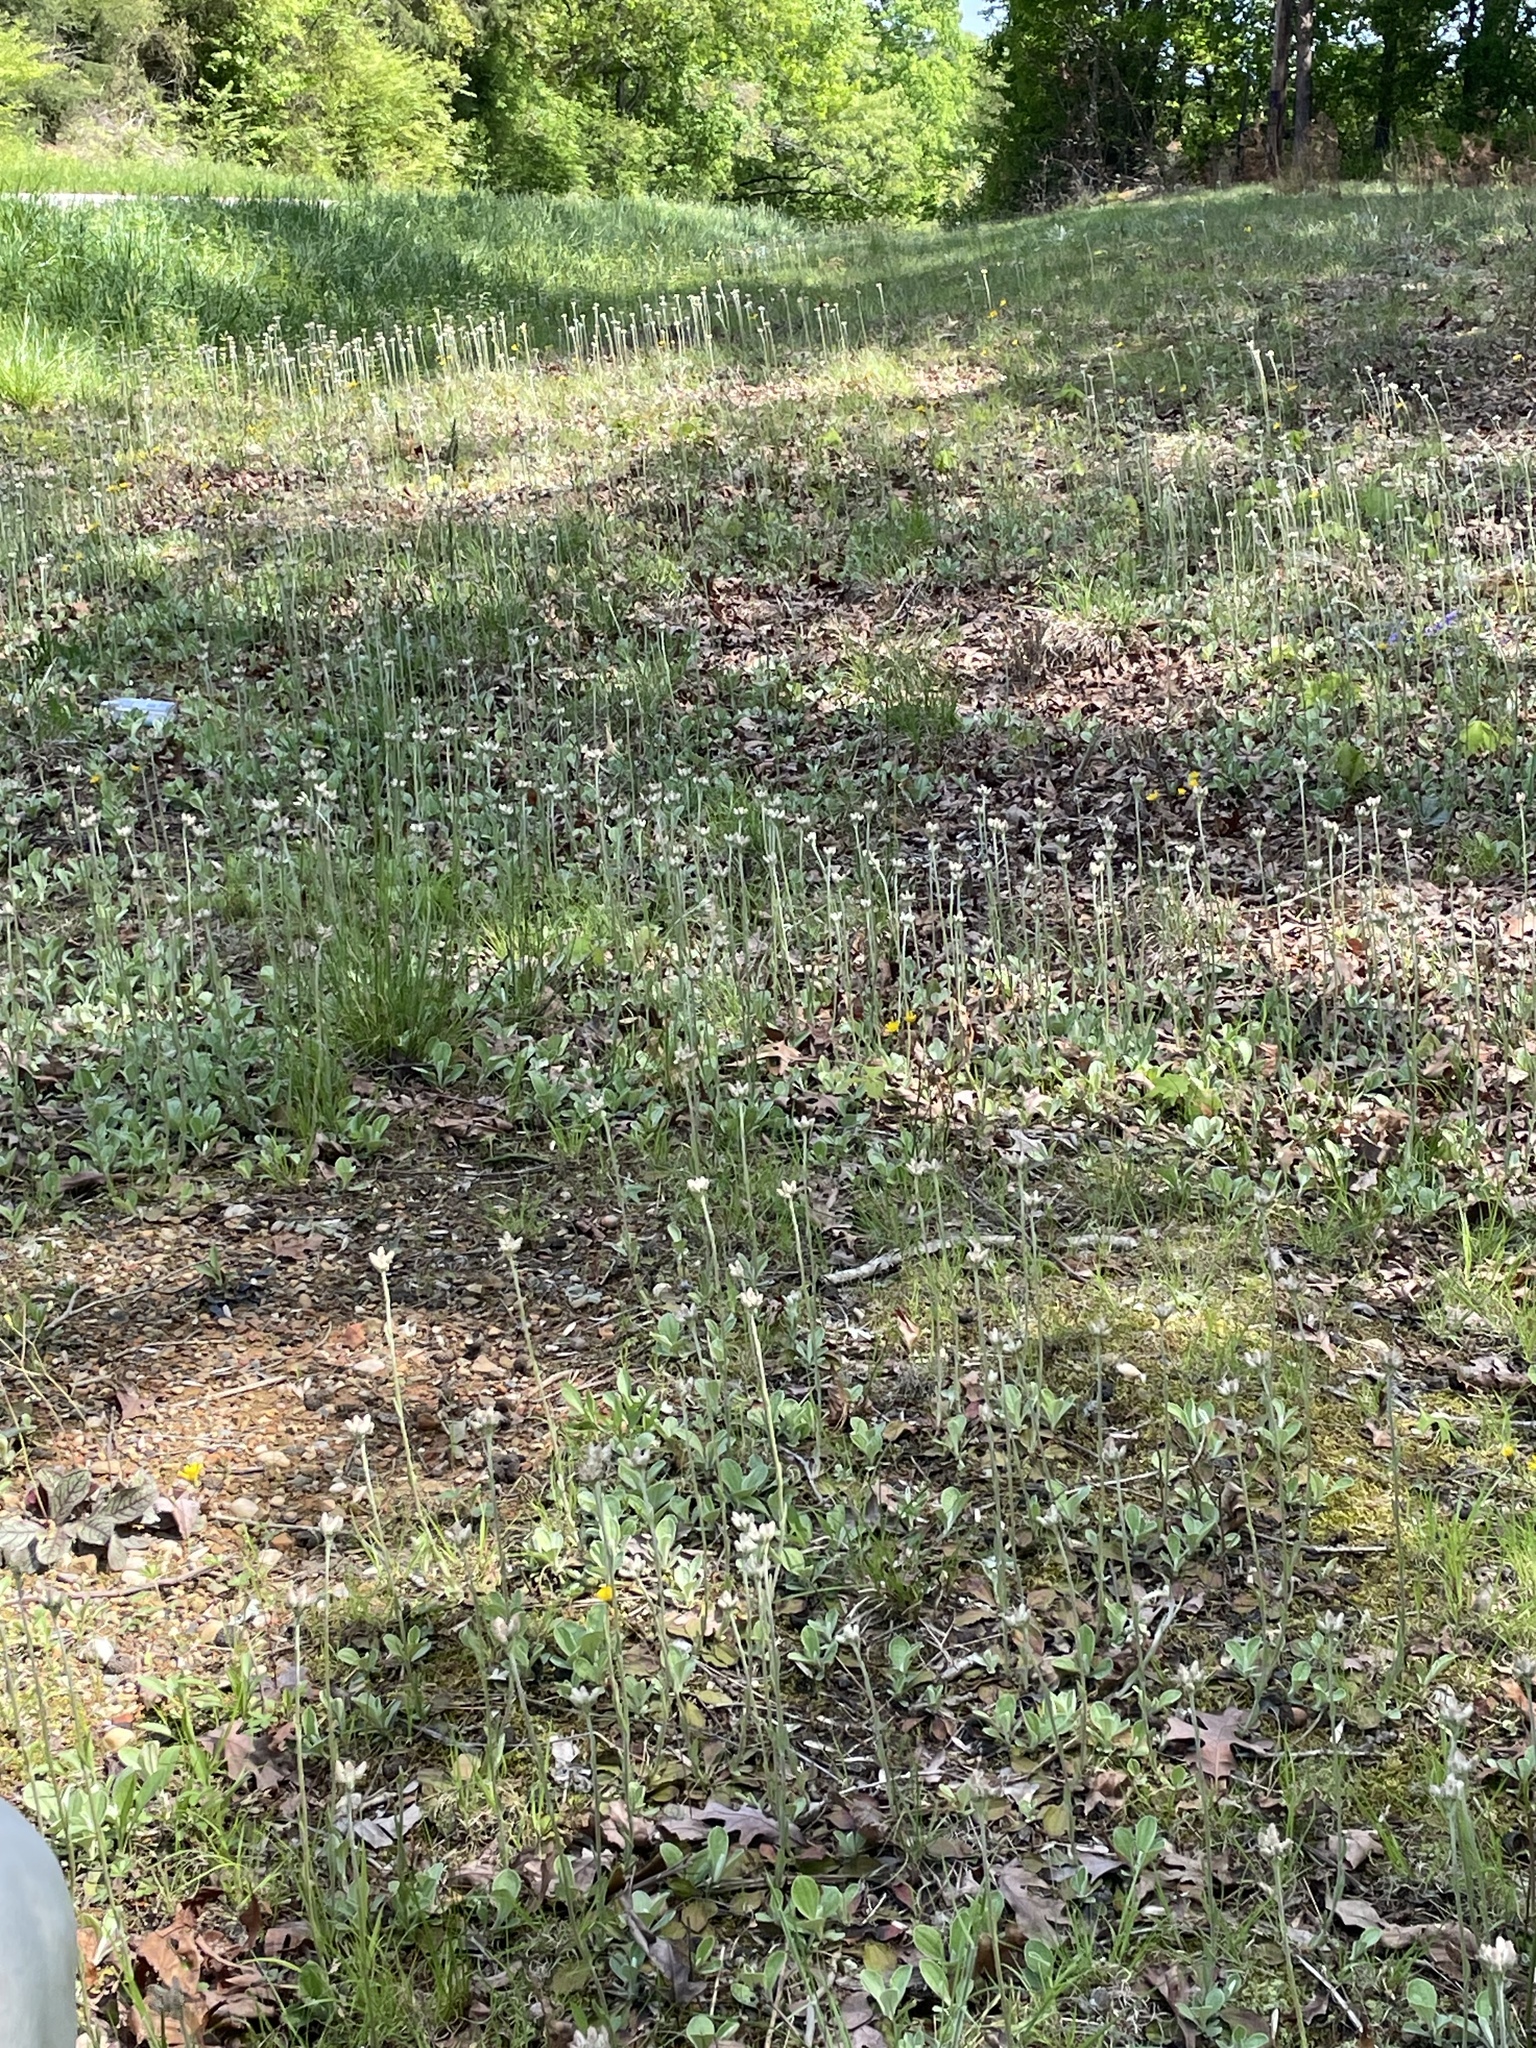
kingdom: Plantae
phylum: Tracheophyta
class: Magnoliopsida
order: Asterales
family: Asteraceae
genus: Antennaria
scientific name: Antennaria parlinii
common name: Parlin's pussytoes
